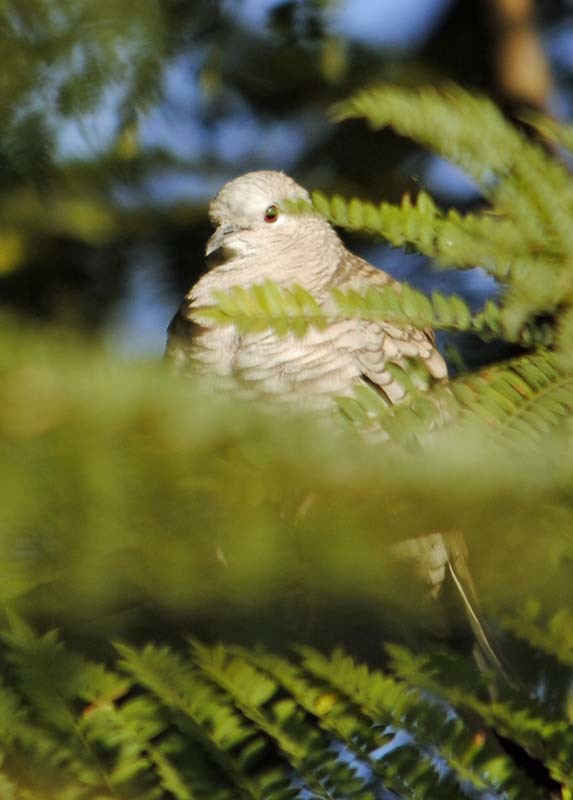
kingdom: Animalia
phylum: Chordata
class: Aves
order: Columbiformes
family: Columbidae
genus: Columbina
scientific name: Columbina inca
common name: Inca dove
